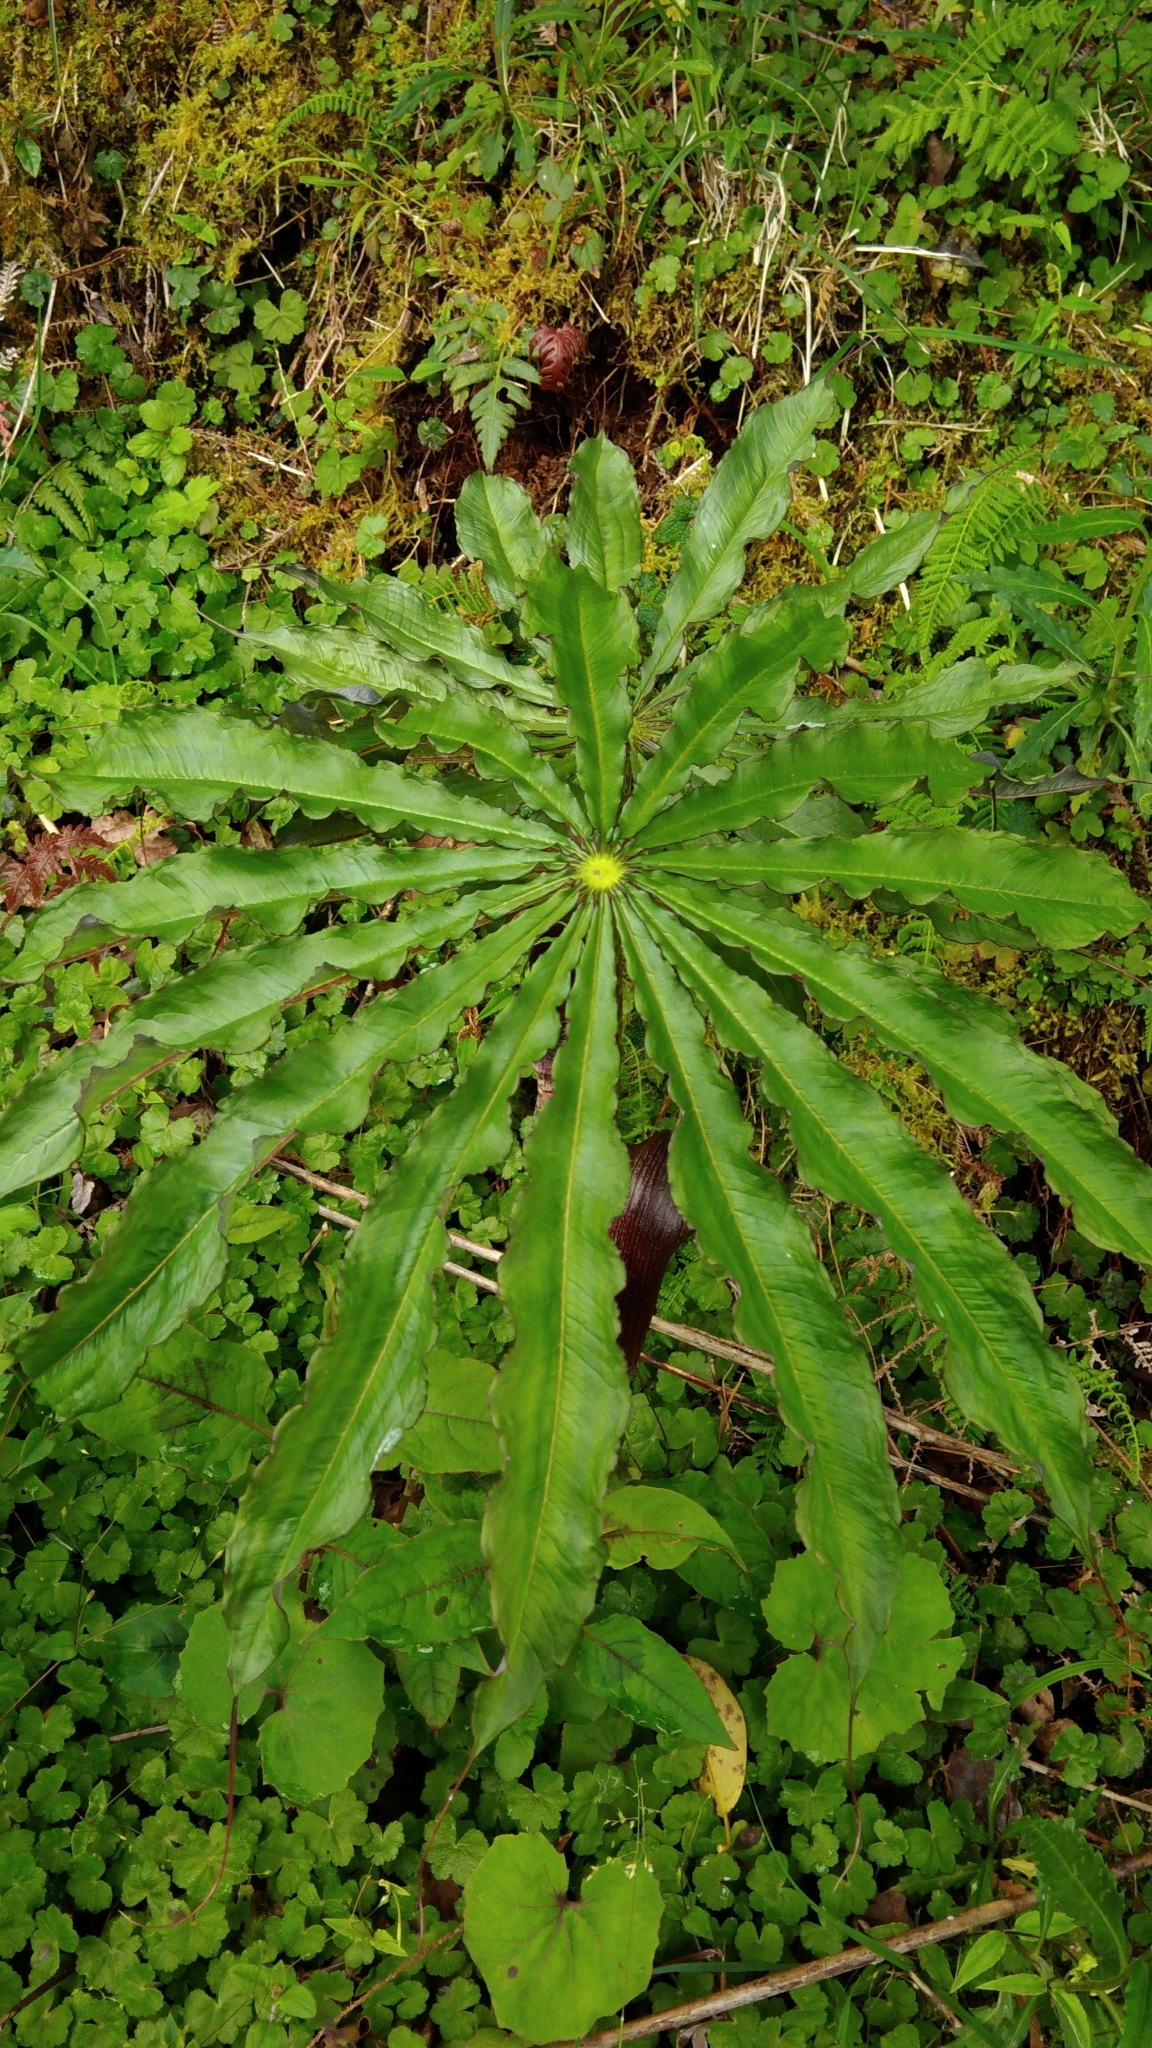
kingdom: Plantae
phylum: Tracheophyta
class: Liliopsida
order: Alismatales
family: Araceae
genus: Arisaema
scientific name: Arisaema taiwanense
